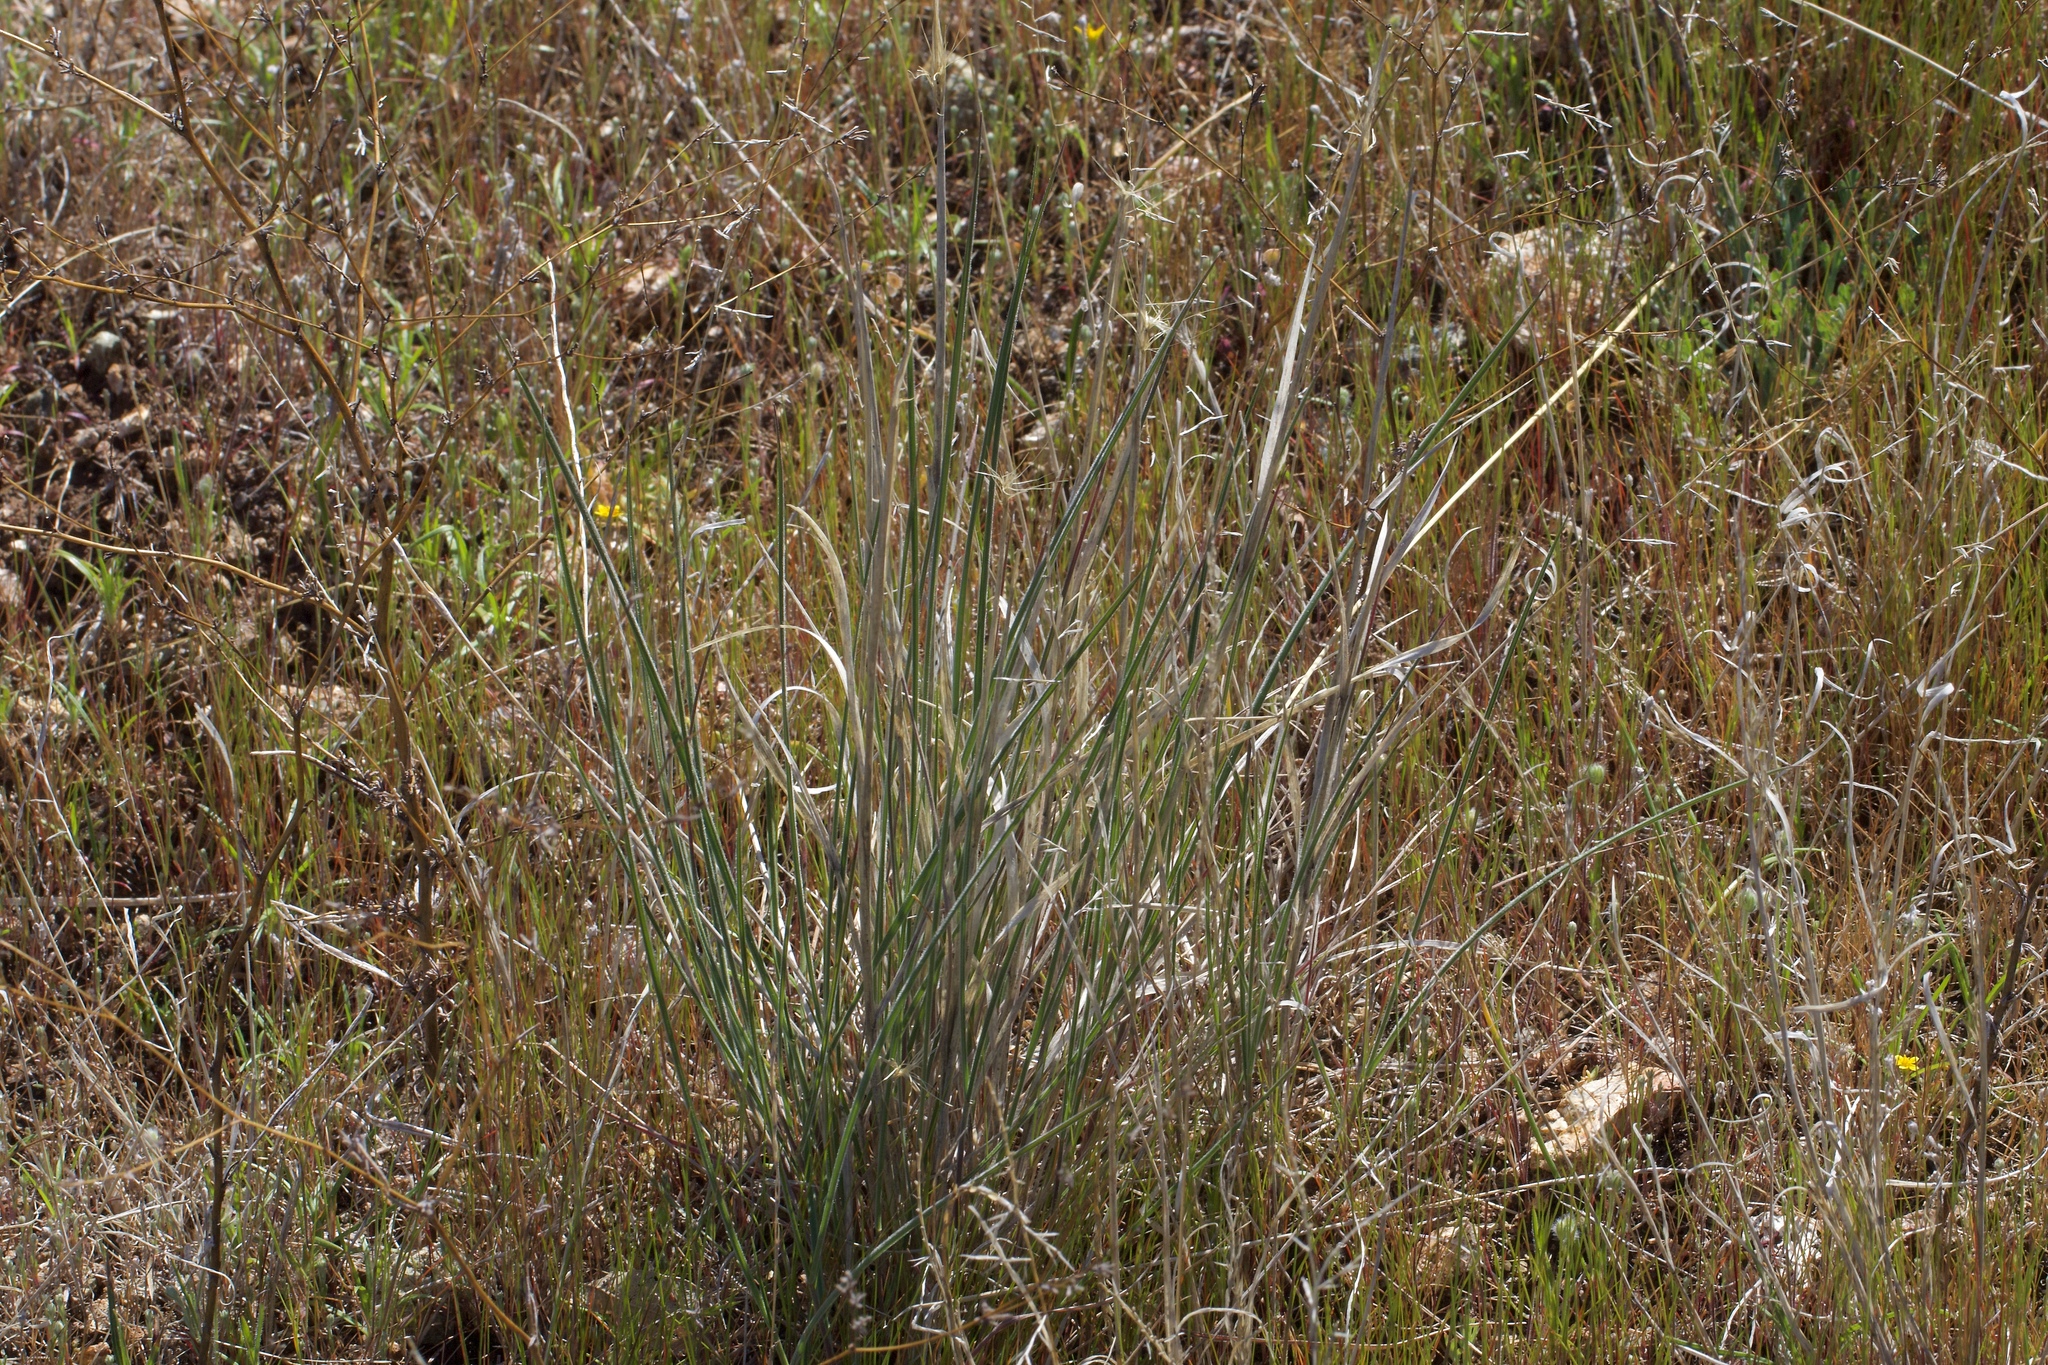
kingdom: Plantae
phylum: Tracheophyta
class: Liliopsida
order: Poales
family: Poaceae
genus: Elymus
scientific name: Elymus elymoides
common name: Bottlebrush squirreltail
